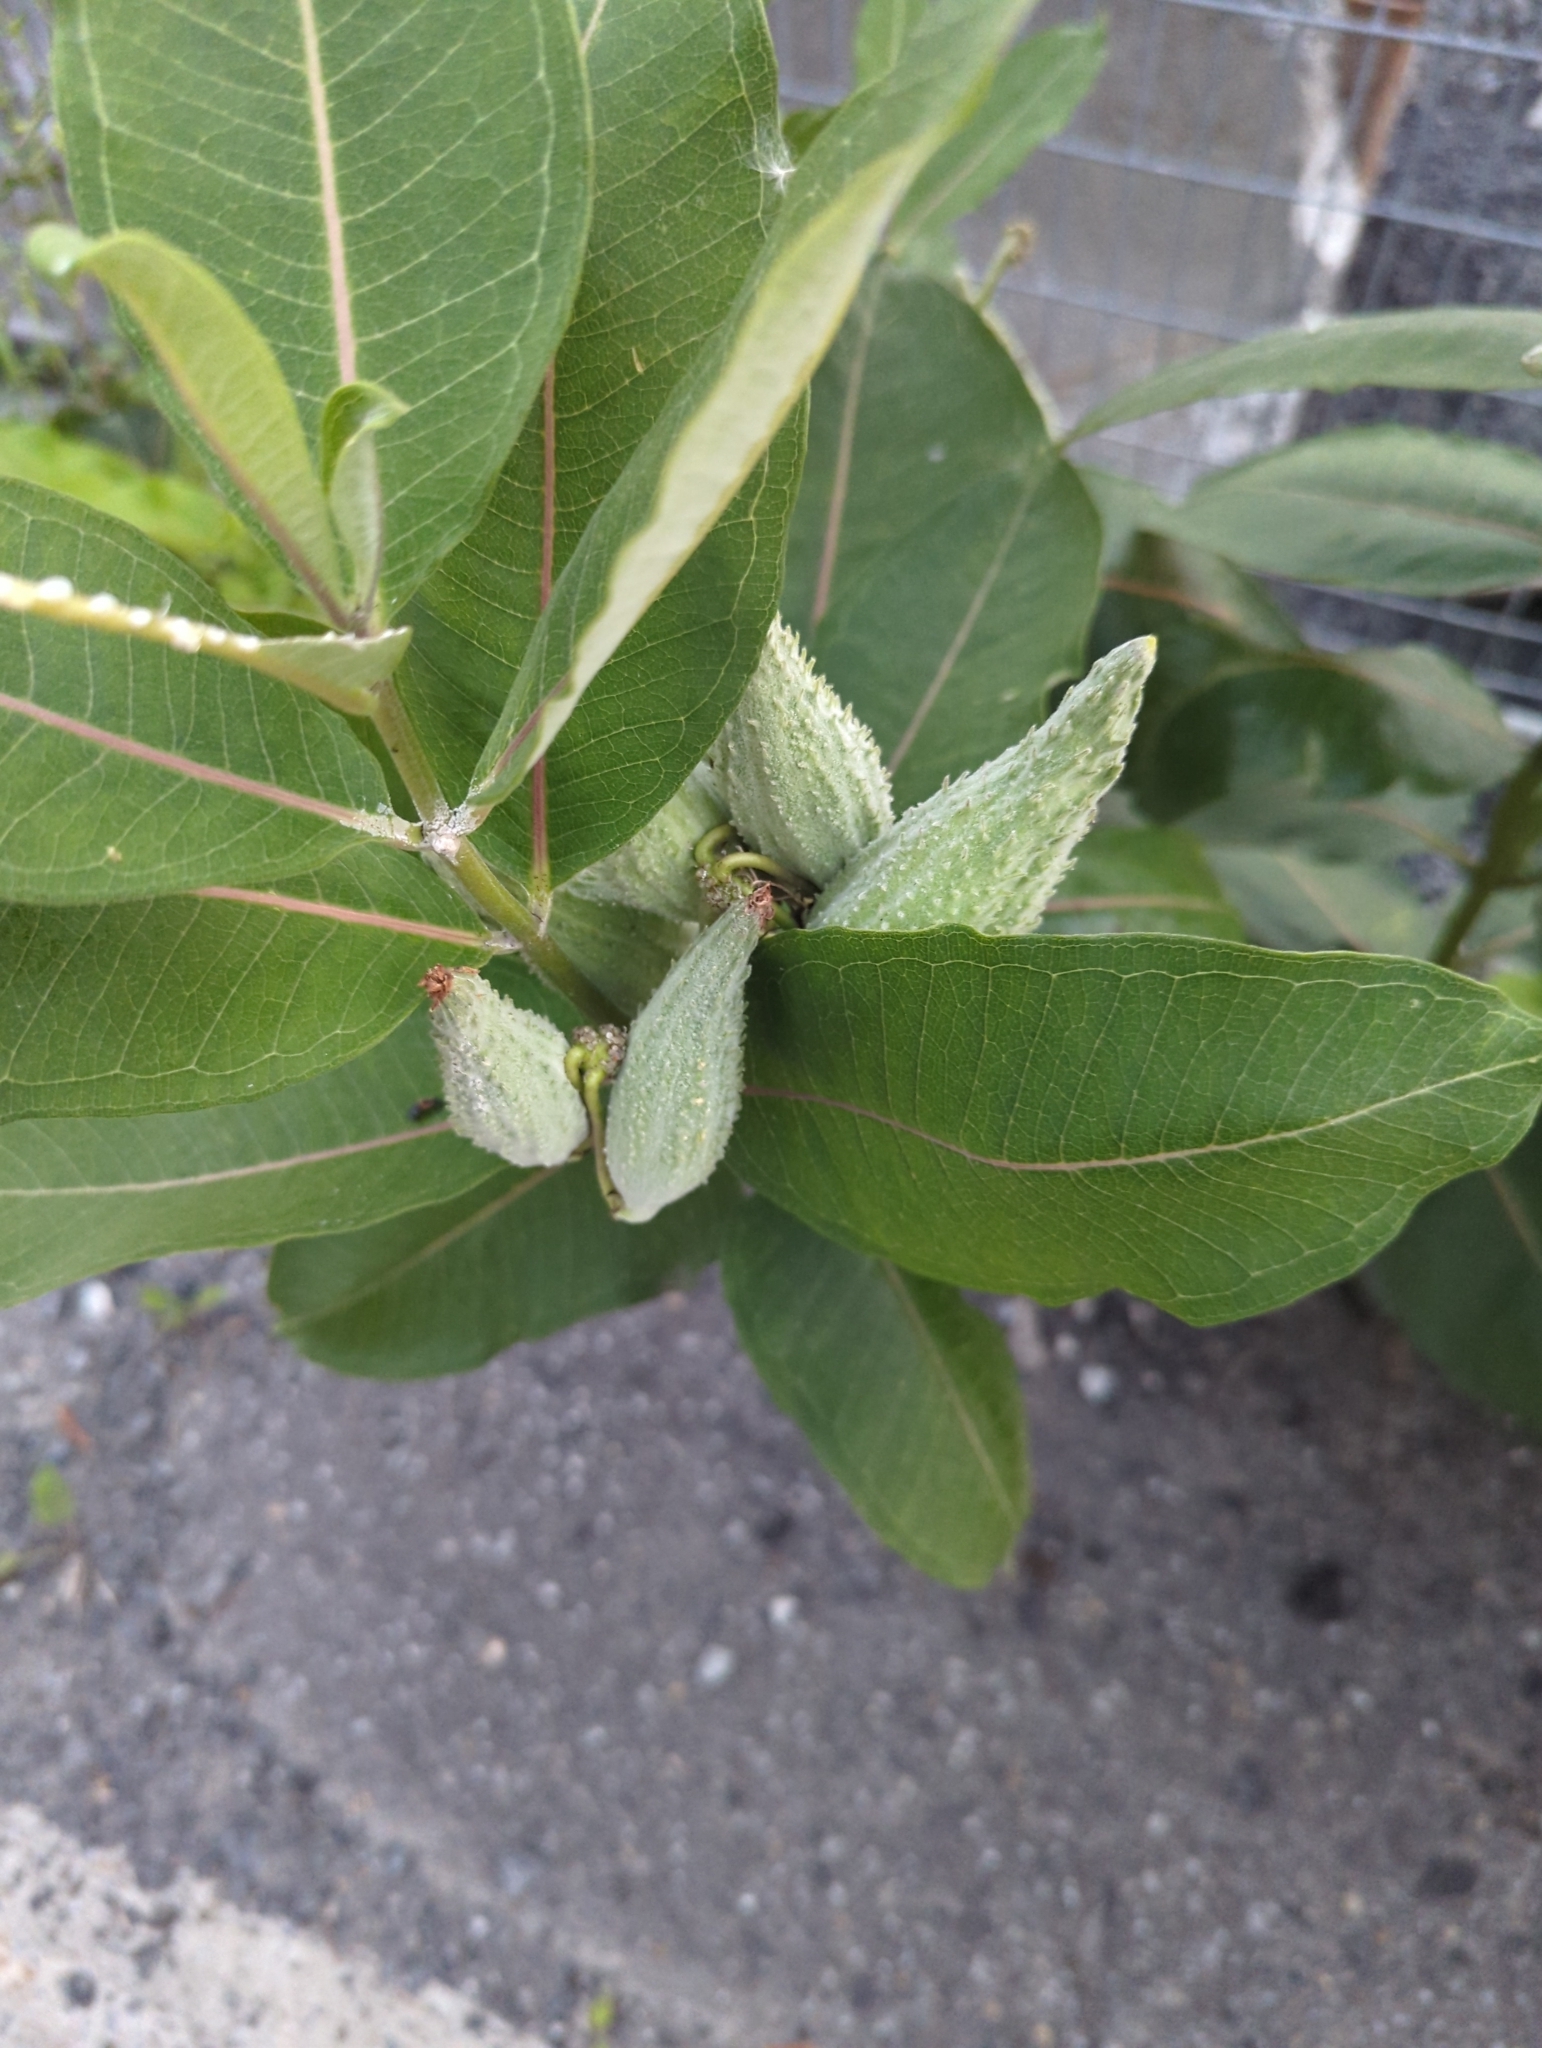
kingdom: Plantae
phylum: Tracheophyta
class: Magnoliopsida
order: Gentianales
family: Apocynaceae
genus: Asclepias
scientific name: Asclepias syriaca
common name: Common milkweed
